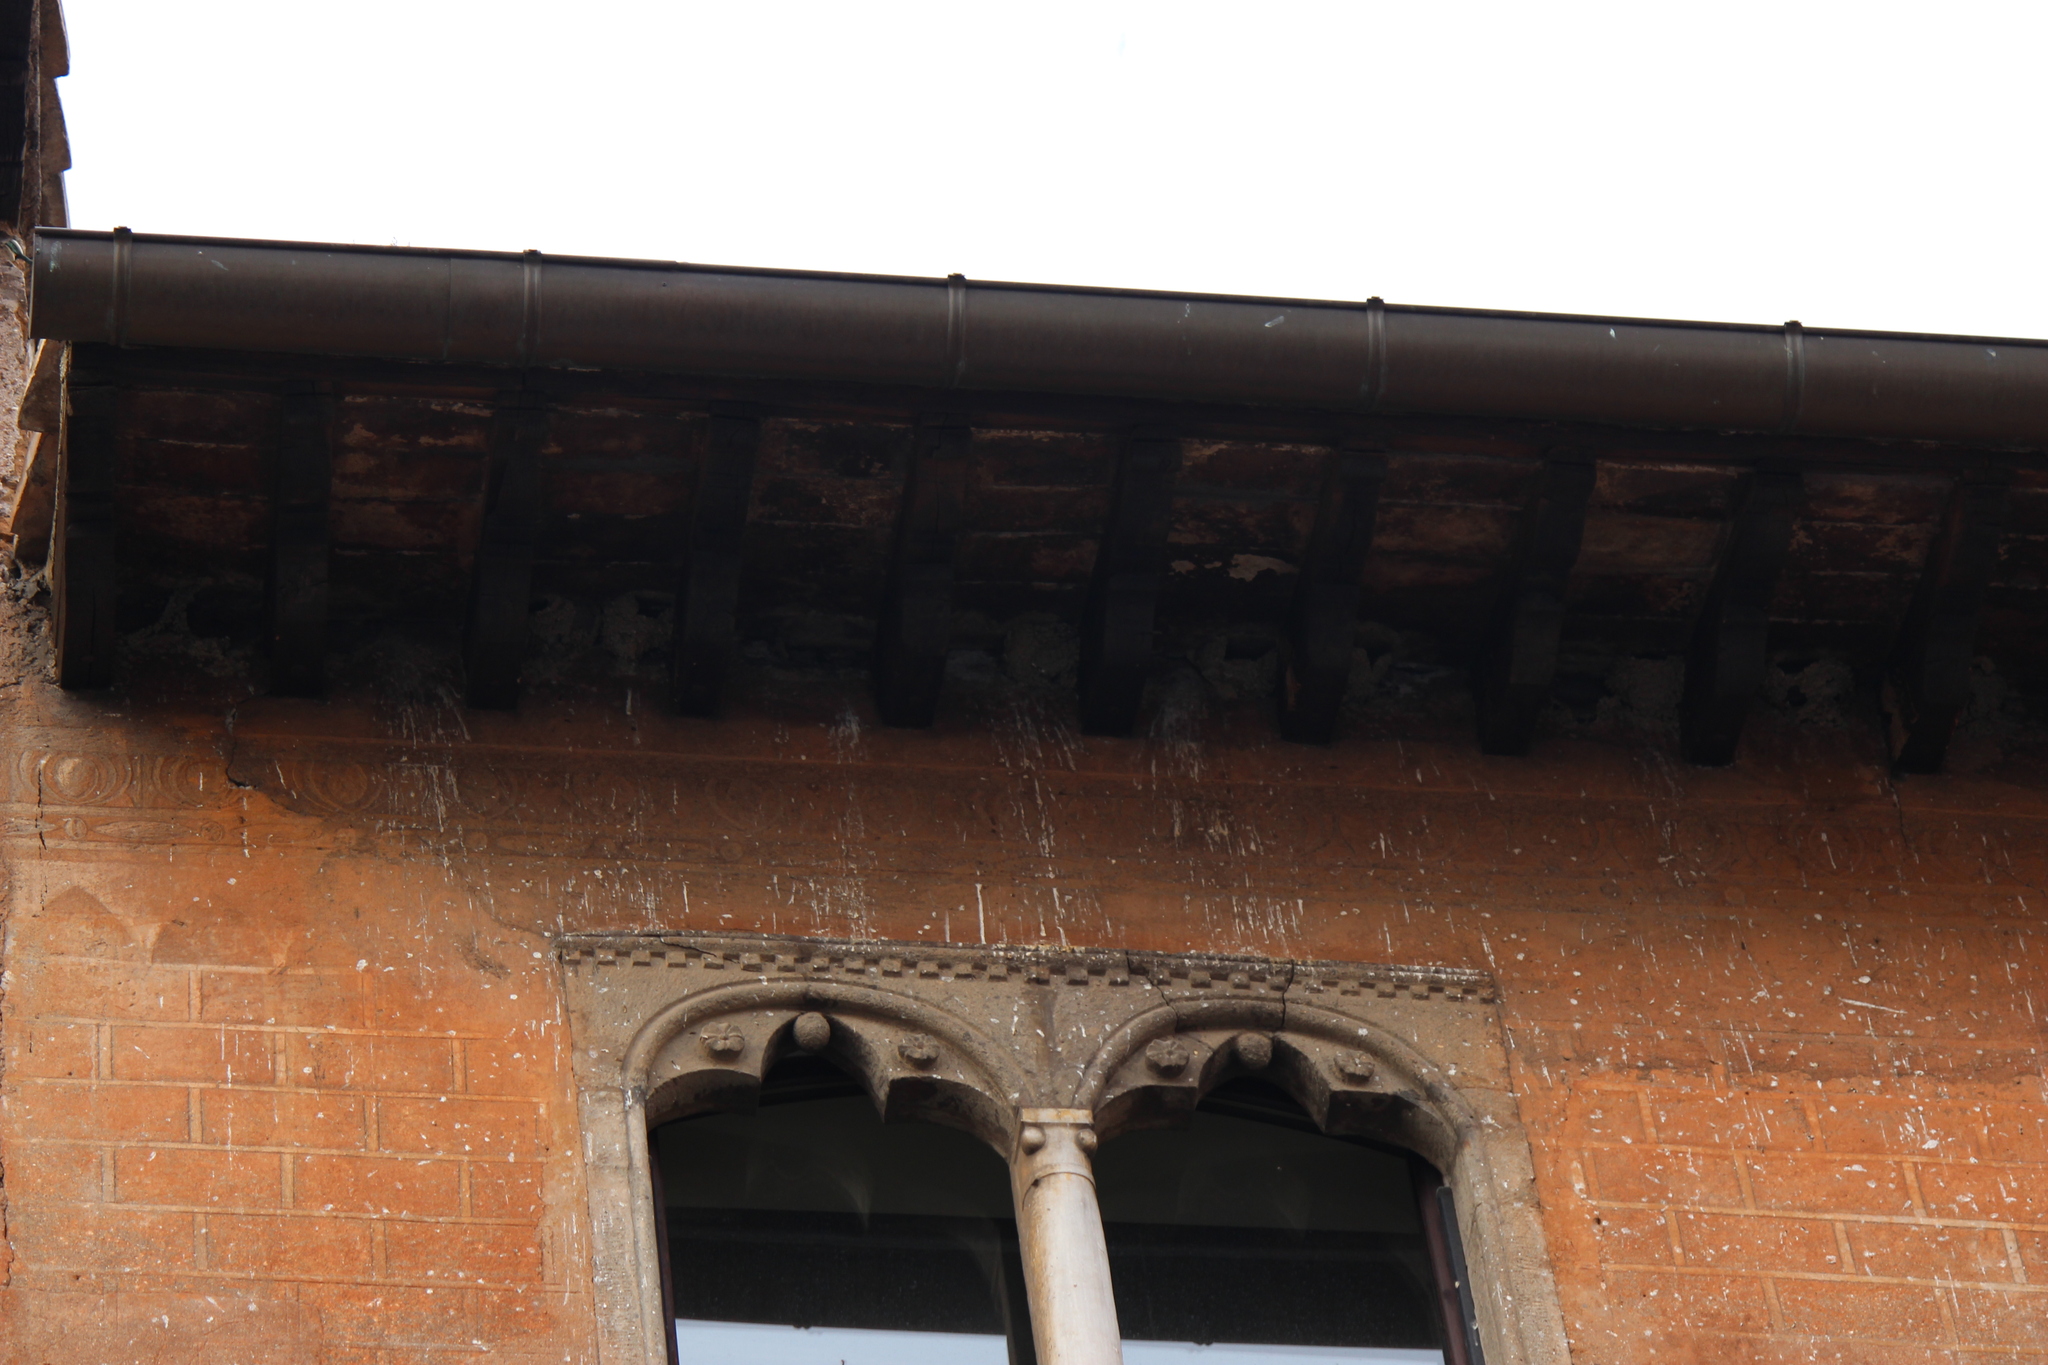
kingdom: Animalia
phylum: Chordata
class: Aves
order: Passeriformes
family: Hirundinidae
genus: Delichon
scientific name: Delichon urbicum
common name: Common house martin
